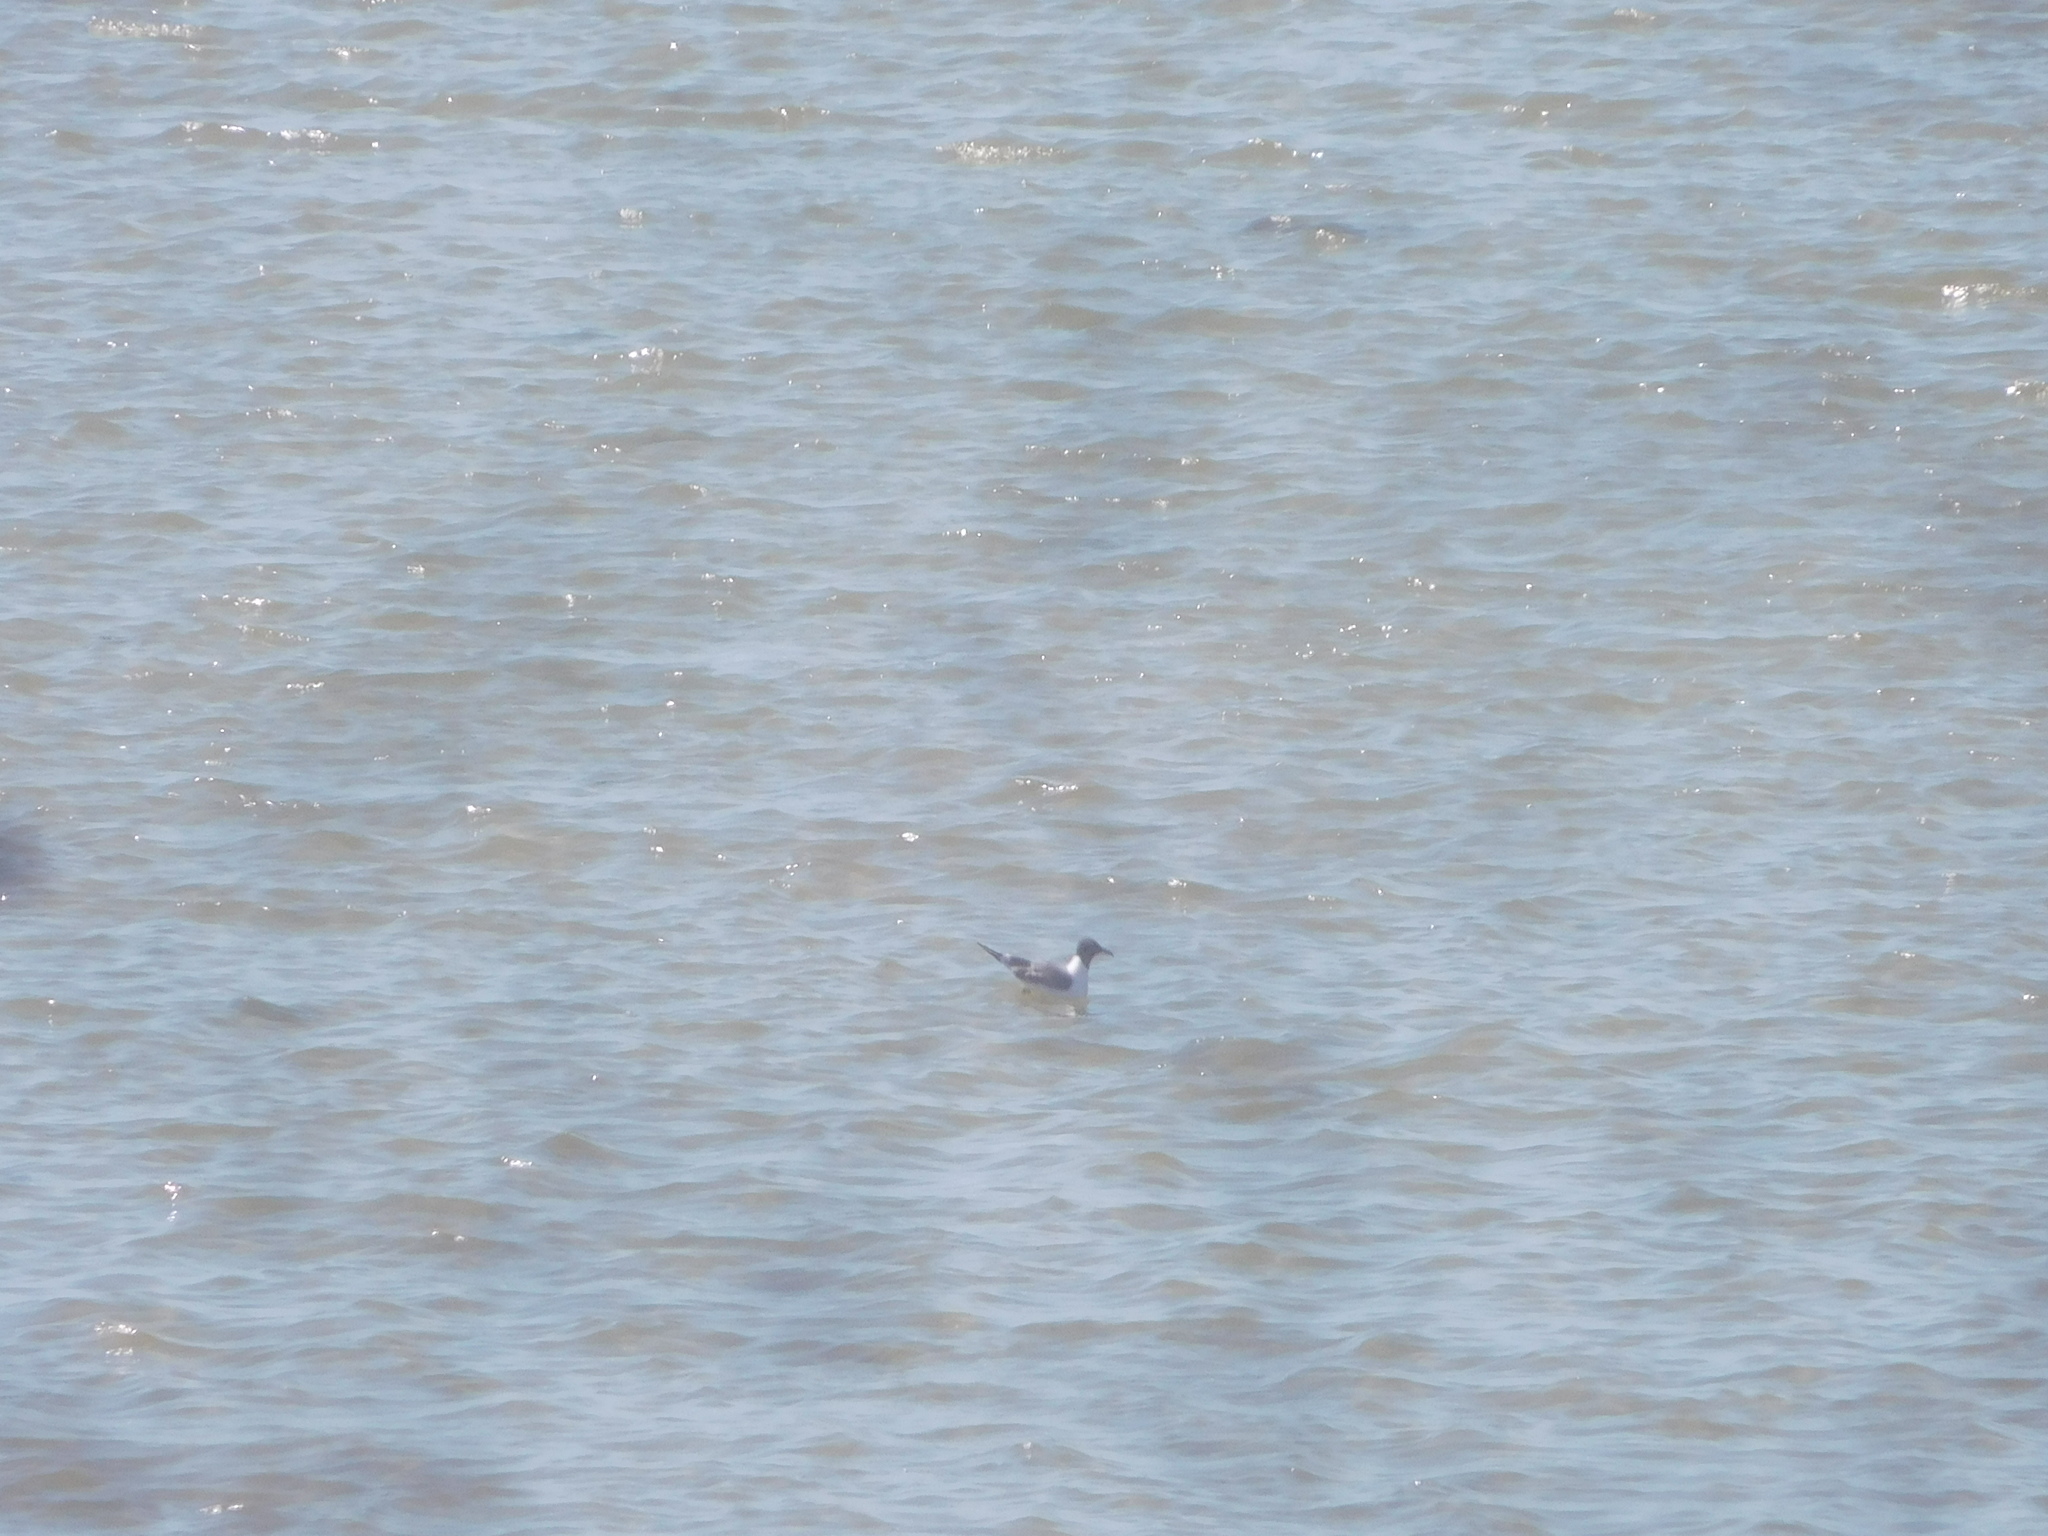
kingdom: Animalia
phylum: Chordata
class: Aves
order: Charadriiformes
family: Laridae
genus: Leucophaeus
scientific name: Leucophaeus atricilla
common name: Laughing gull
